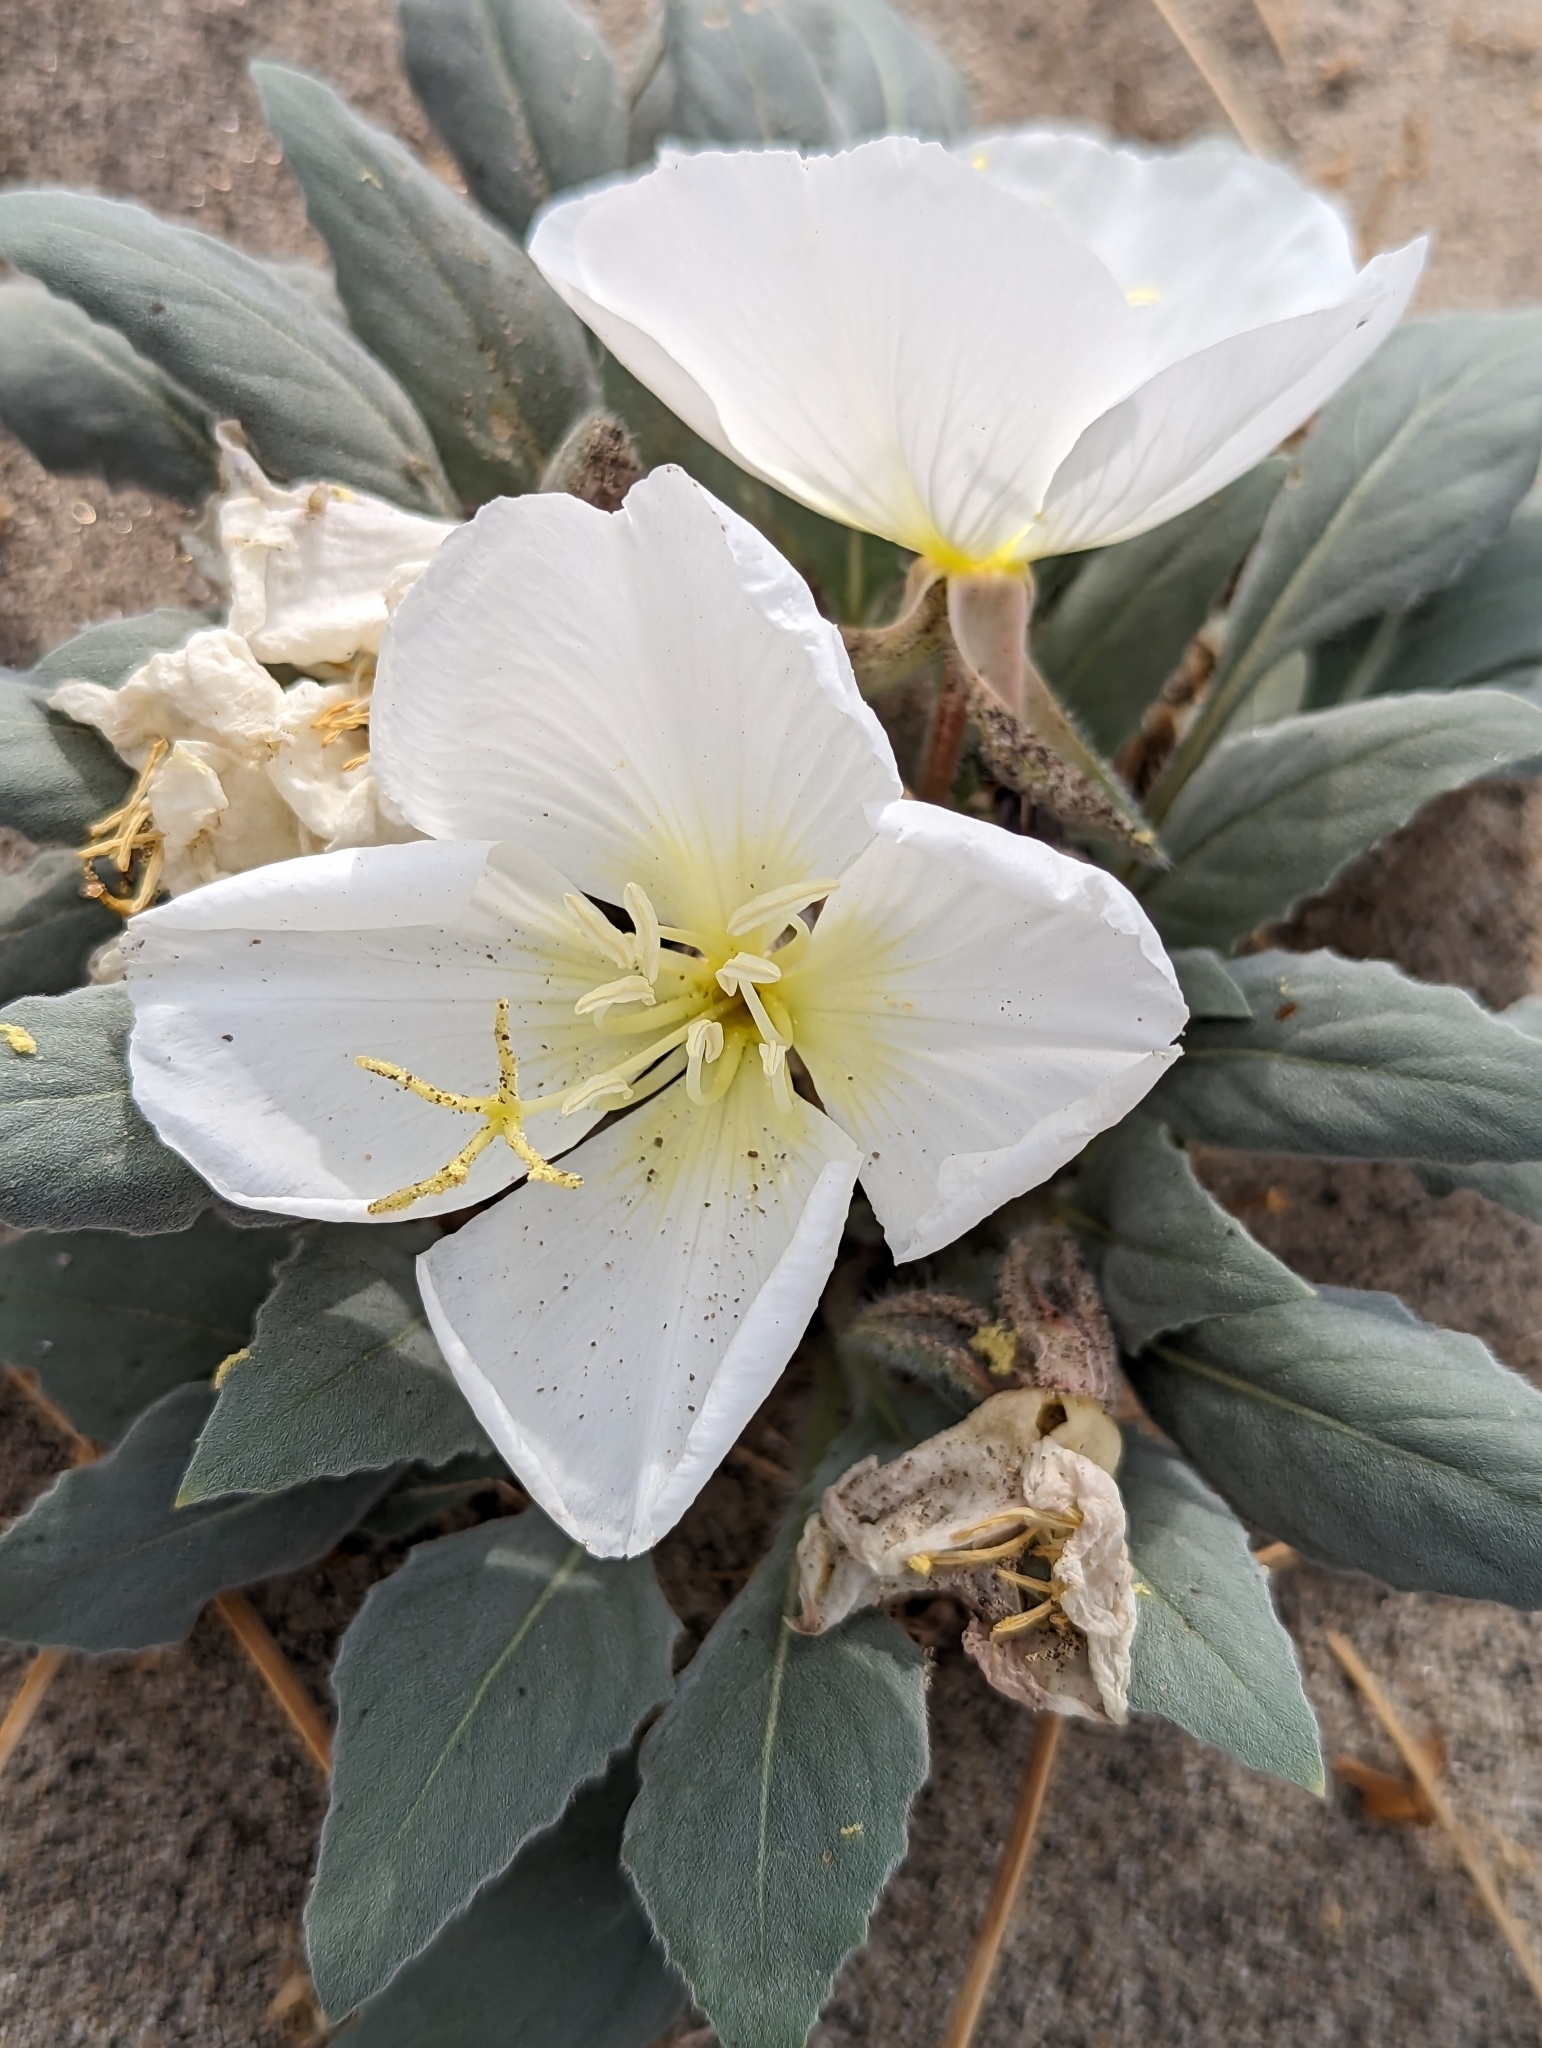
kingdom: Plantae
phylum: Tracheophyta
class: Magnoliopsida
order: Myrtales
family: Onagraceae
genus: Oenothera
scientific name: Oenothera deltoides
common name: Basket evening-primrose
